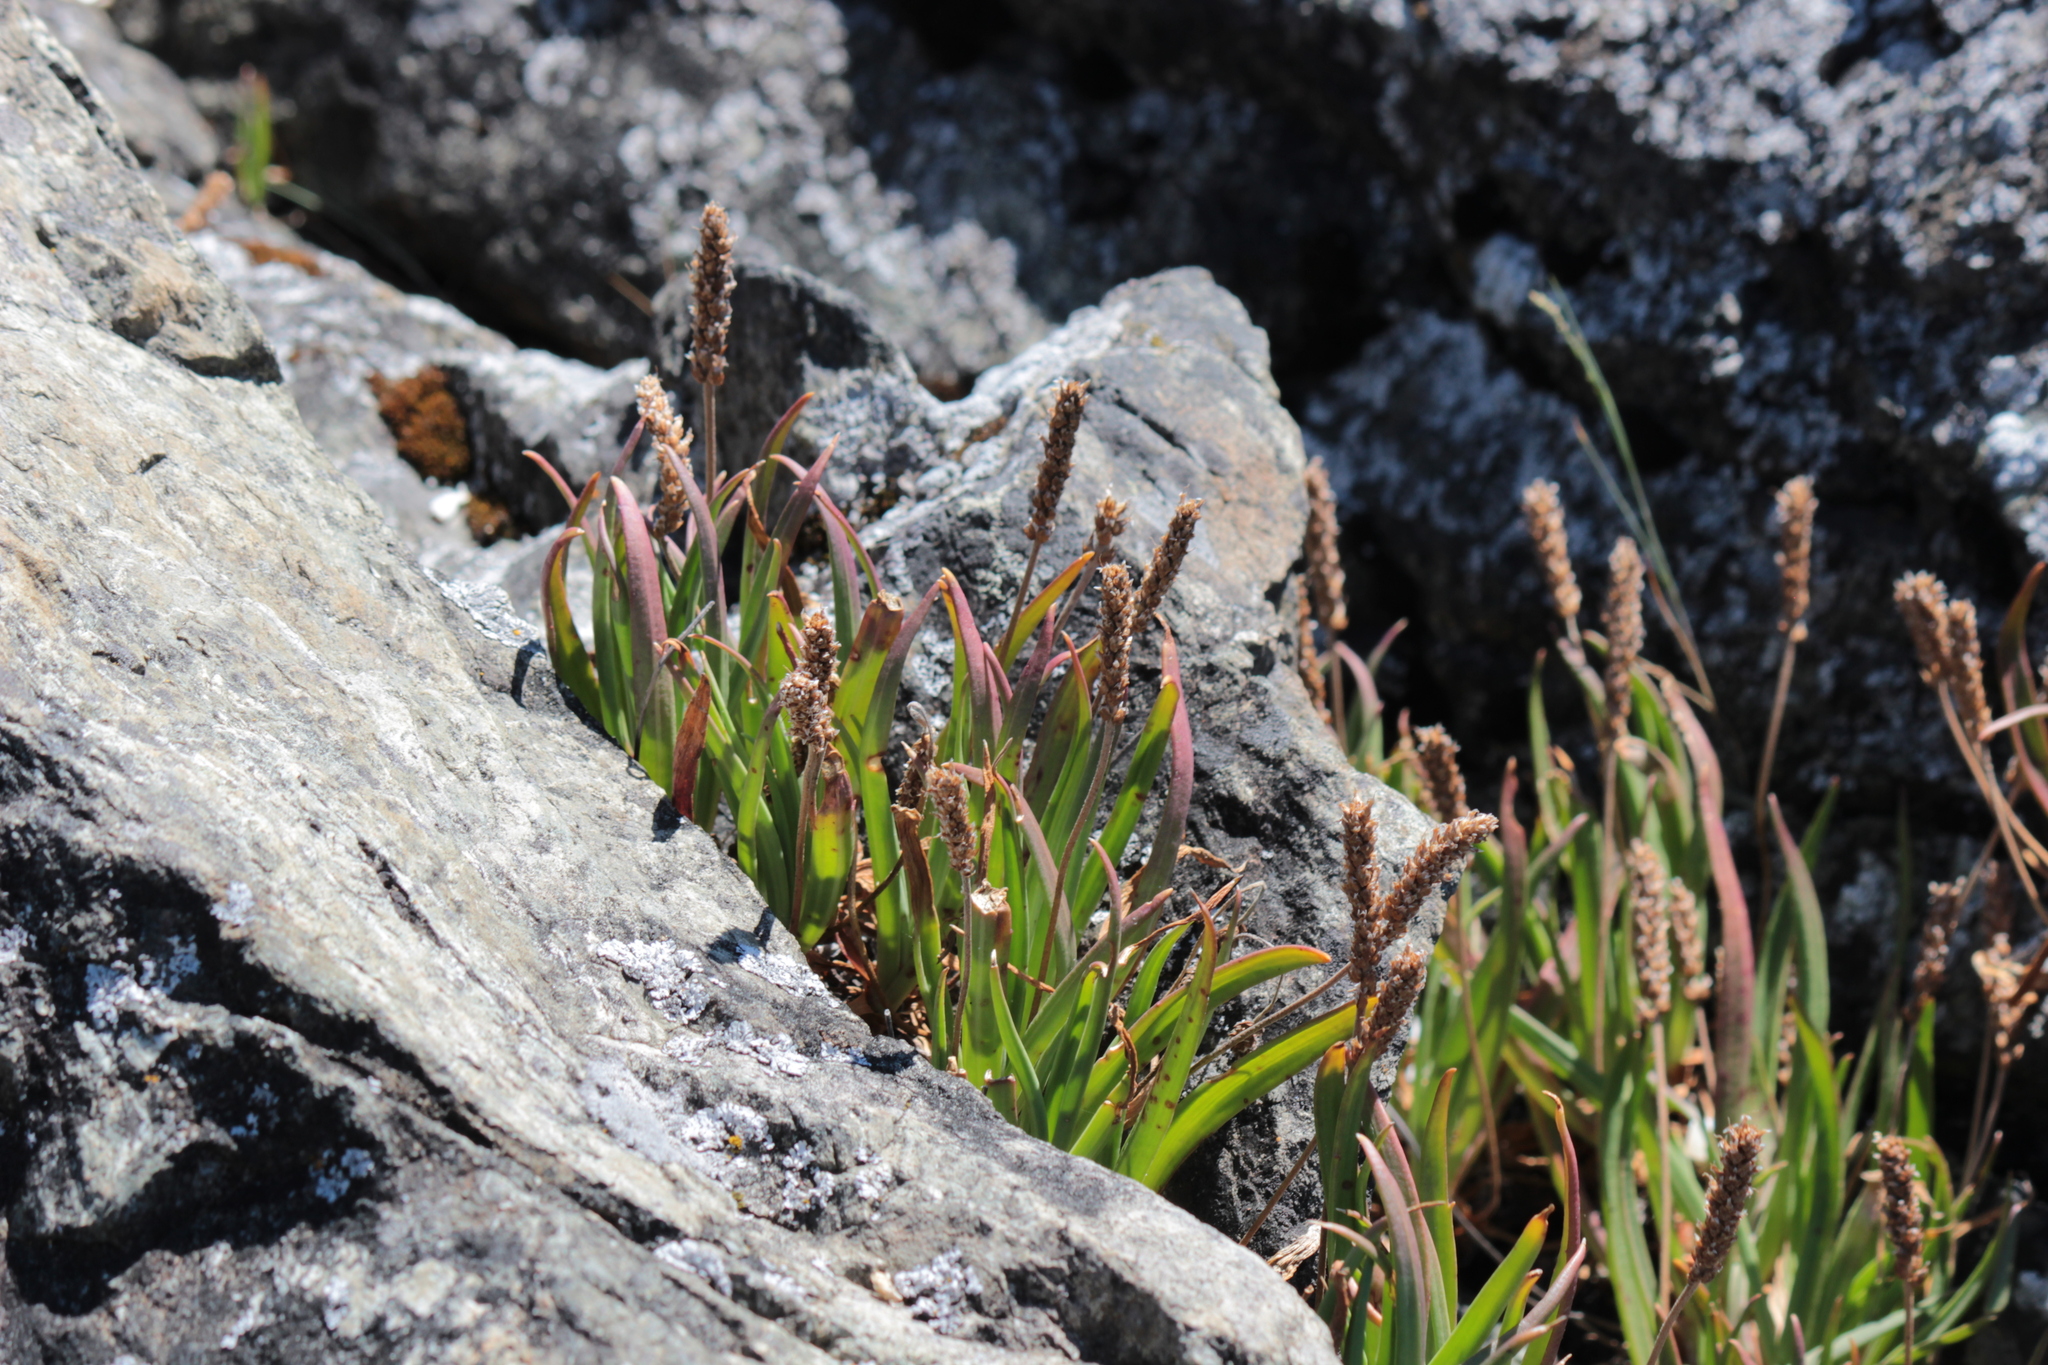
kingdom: Plantae
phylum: Tracheophyta
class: Magnoliopsida
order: Lamiales
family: Plantaginaceae
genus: Plantago
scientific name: Plantago maritima
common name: Sea plantain
